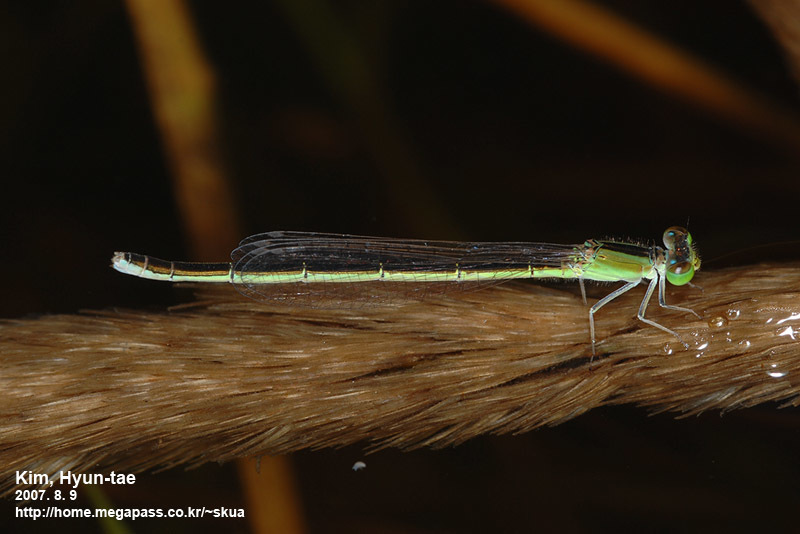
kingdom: Animalia
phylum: Arthropoda
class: Insecta
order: Odonata
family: Coenagrionidae
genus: Ischnura
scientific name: Ischnura asiatica
